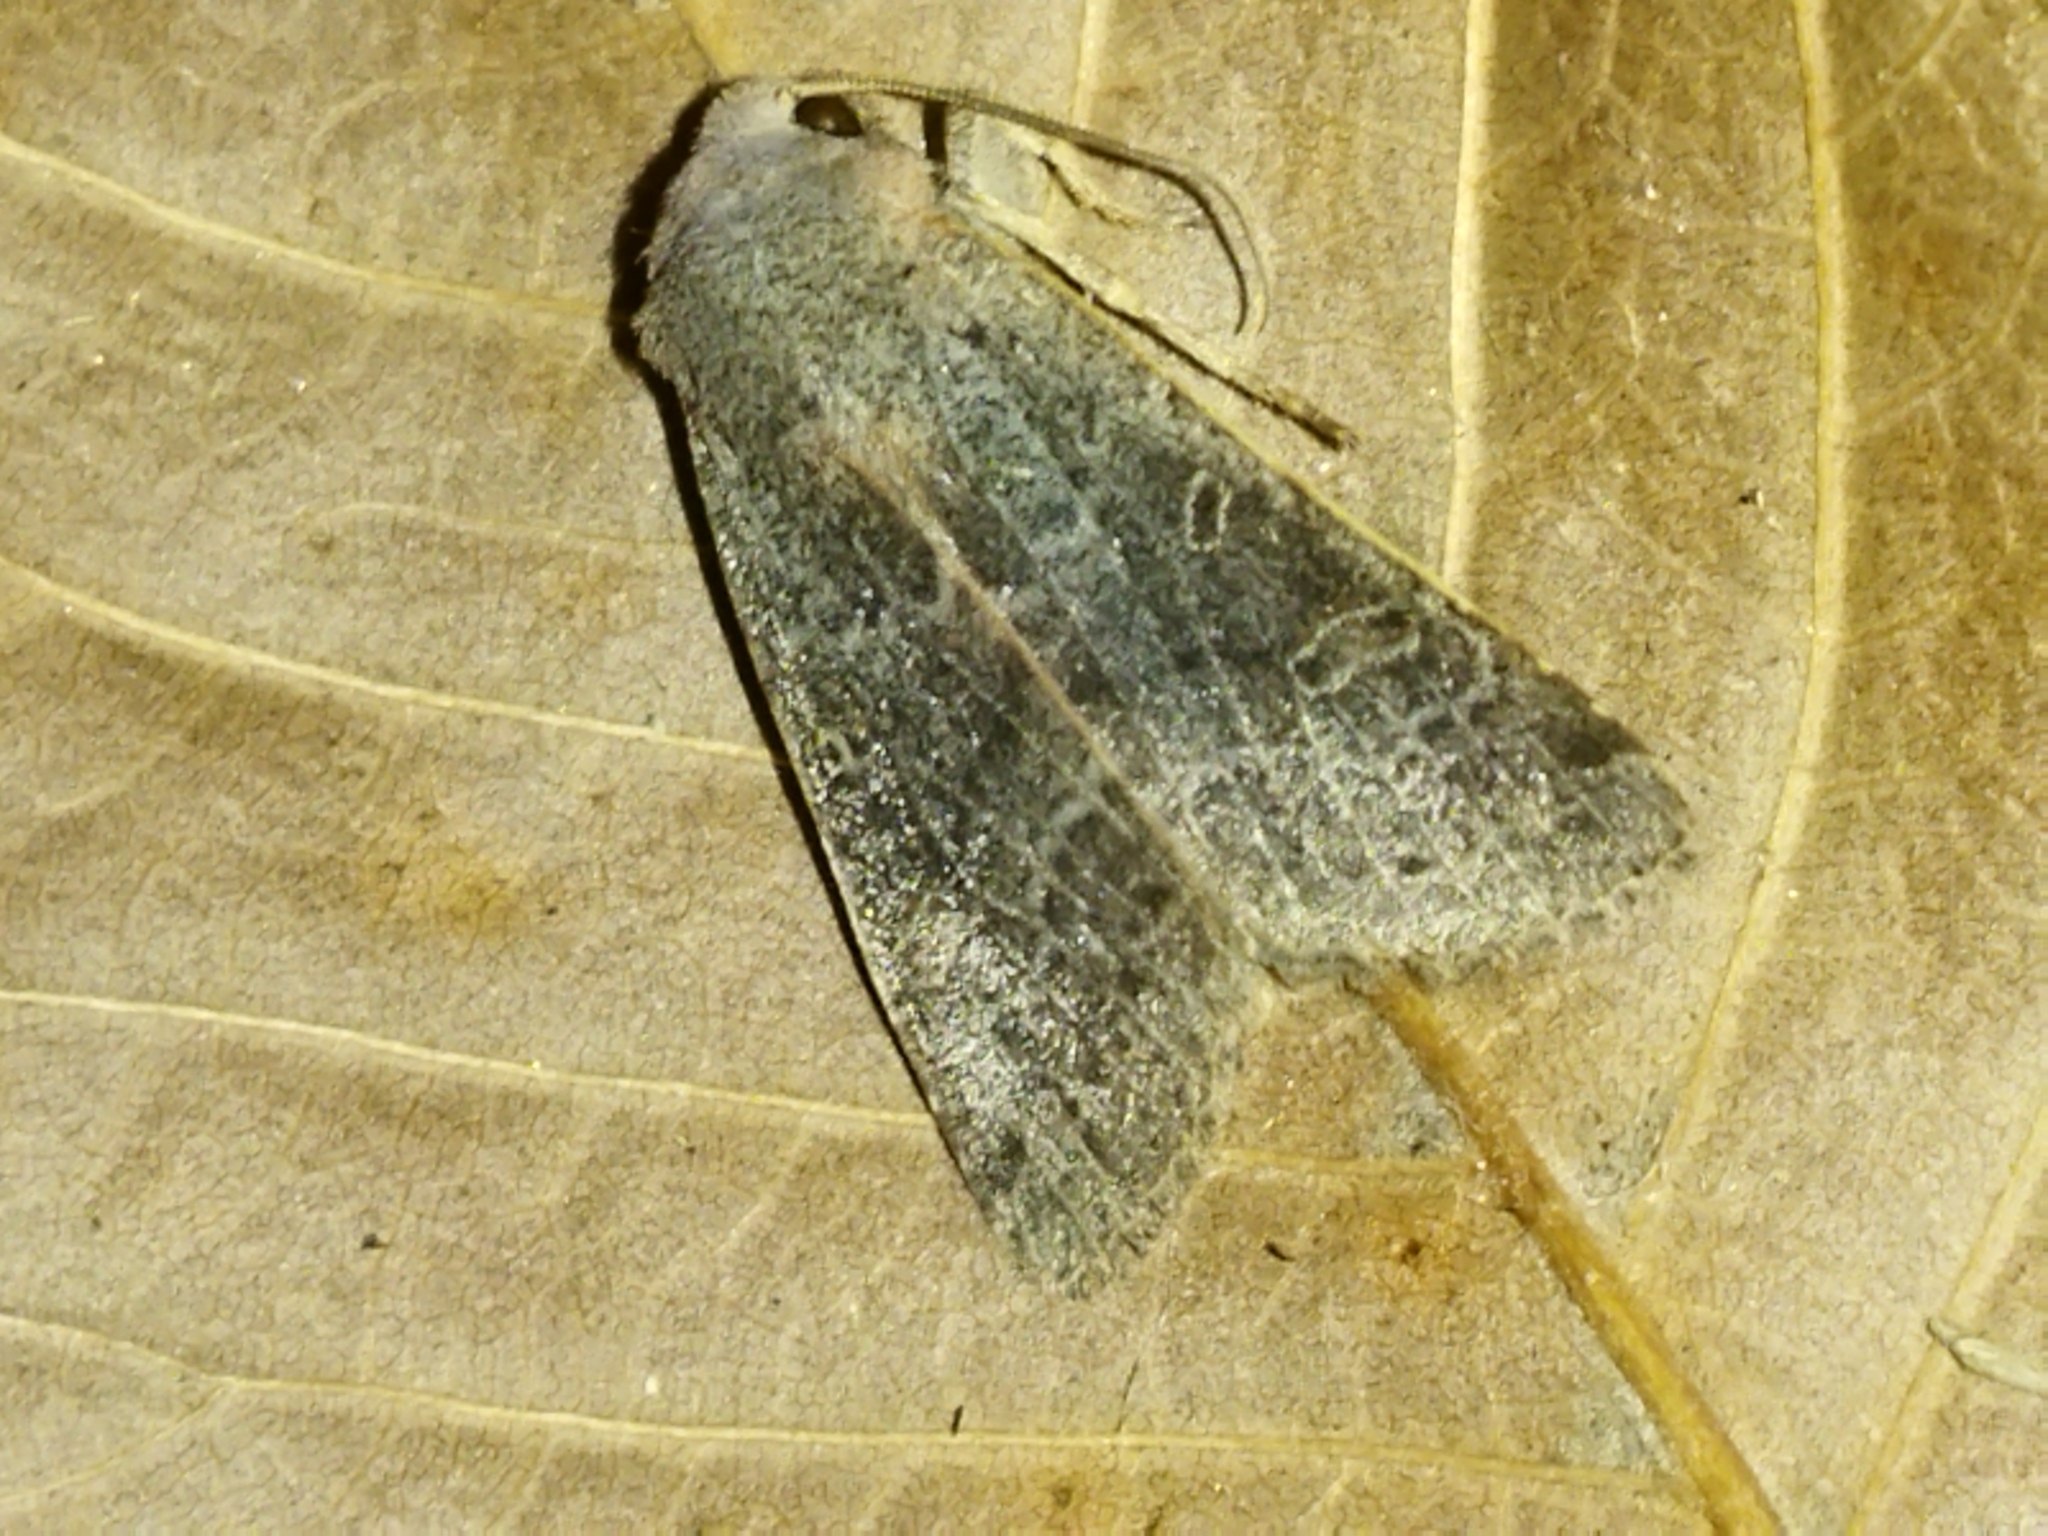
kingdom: Animalia
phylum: Arthropoda
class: Insecta
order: Lepidoptera
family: Noctuidae
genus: Agrochola
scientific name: Agrochola lychnidis
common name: Beaded chestnut
